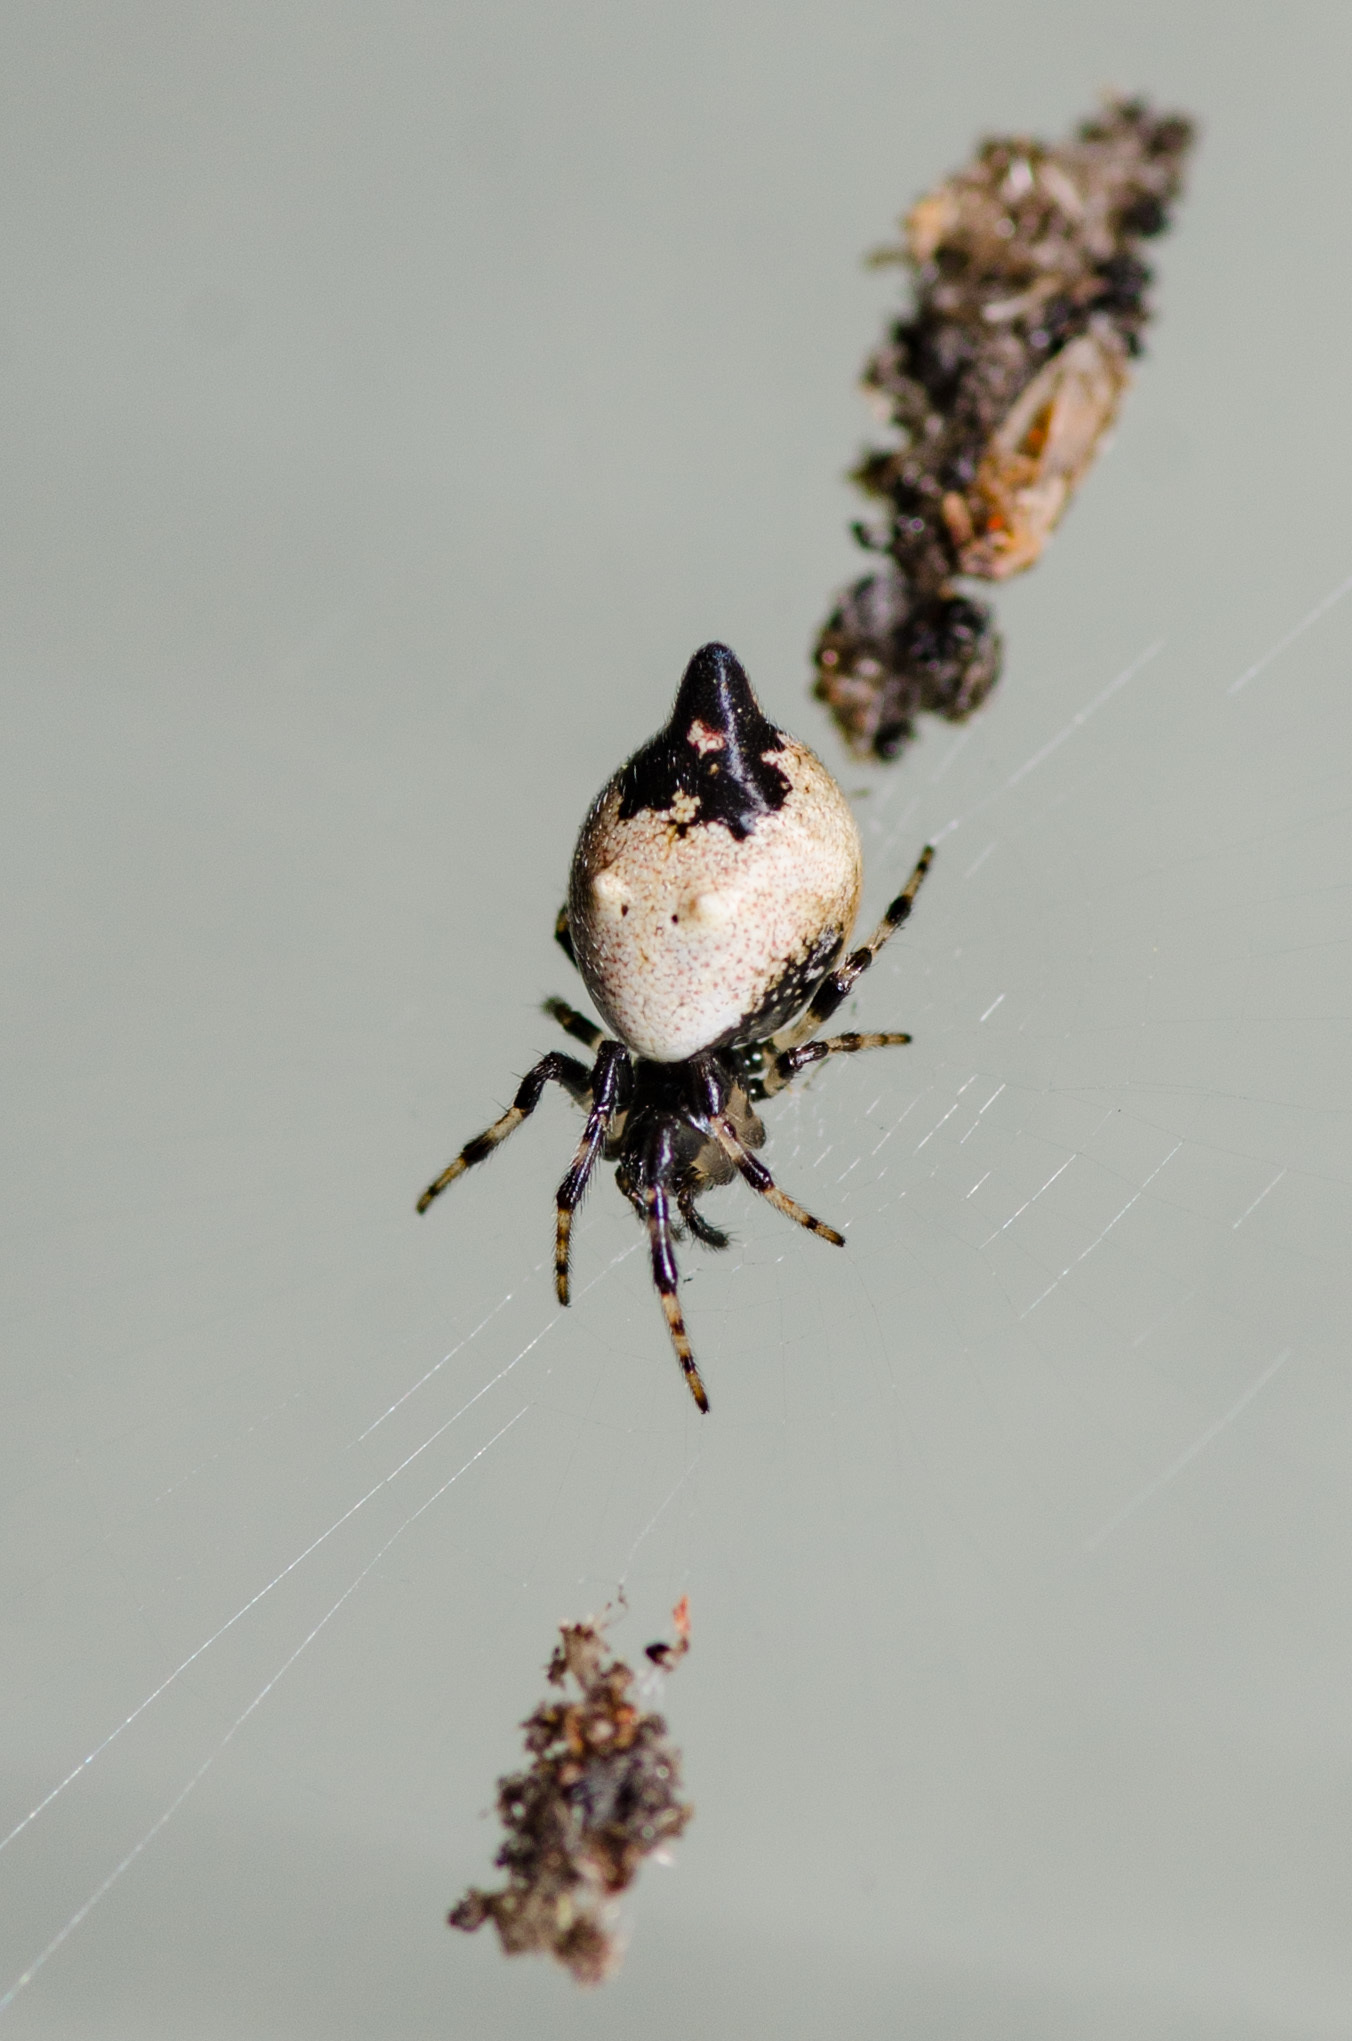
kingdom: Animalia
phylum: Arthropoda
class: Arachnida
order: Araneae
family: Araneidae
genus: Cyclosa
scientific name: Cyclosa turbinata
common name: Orb weavers
